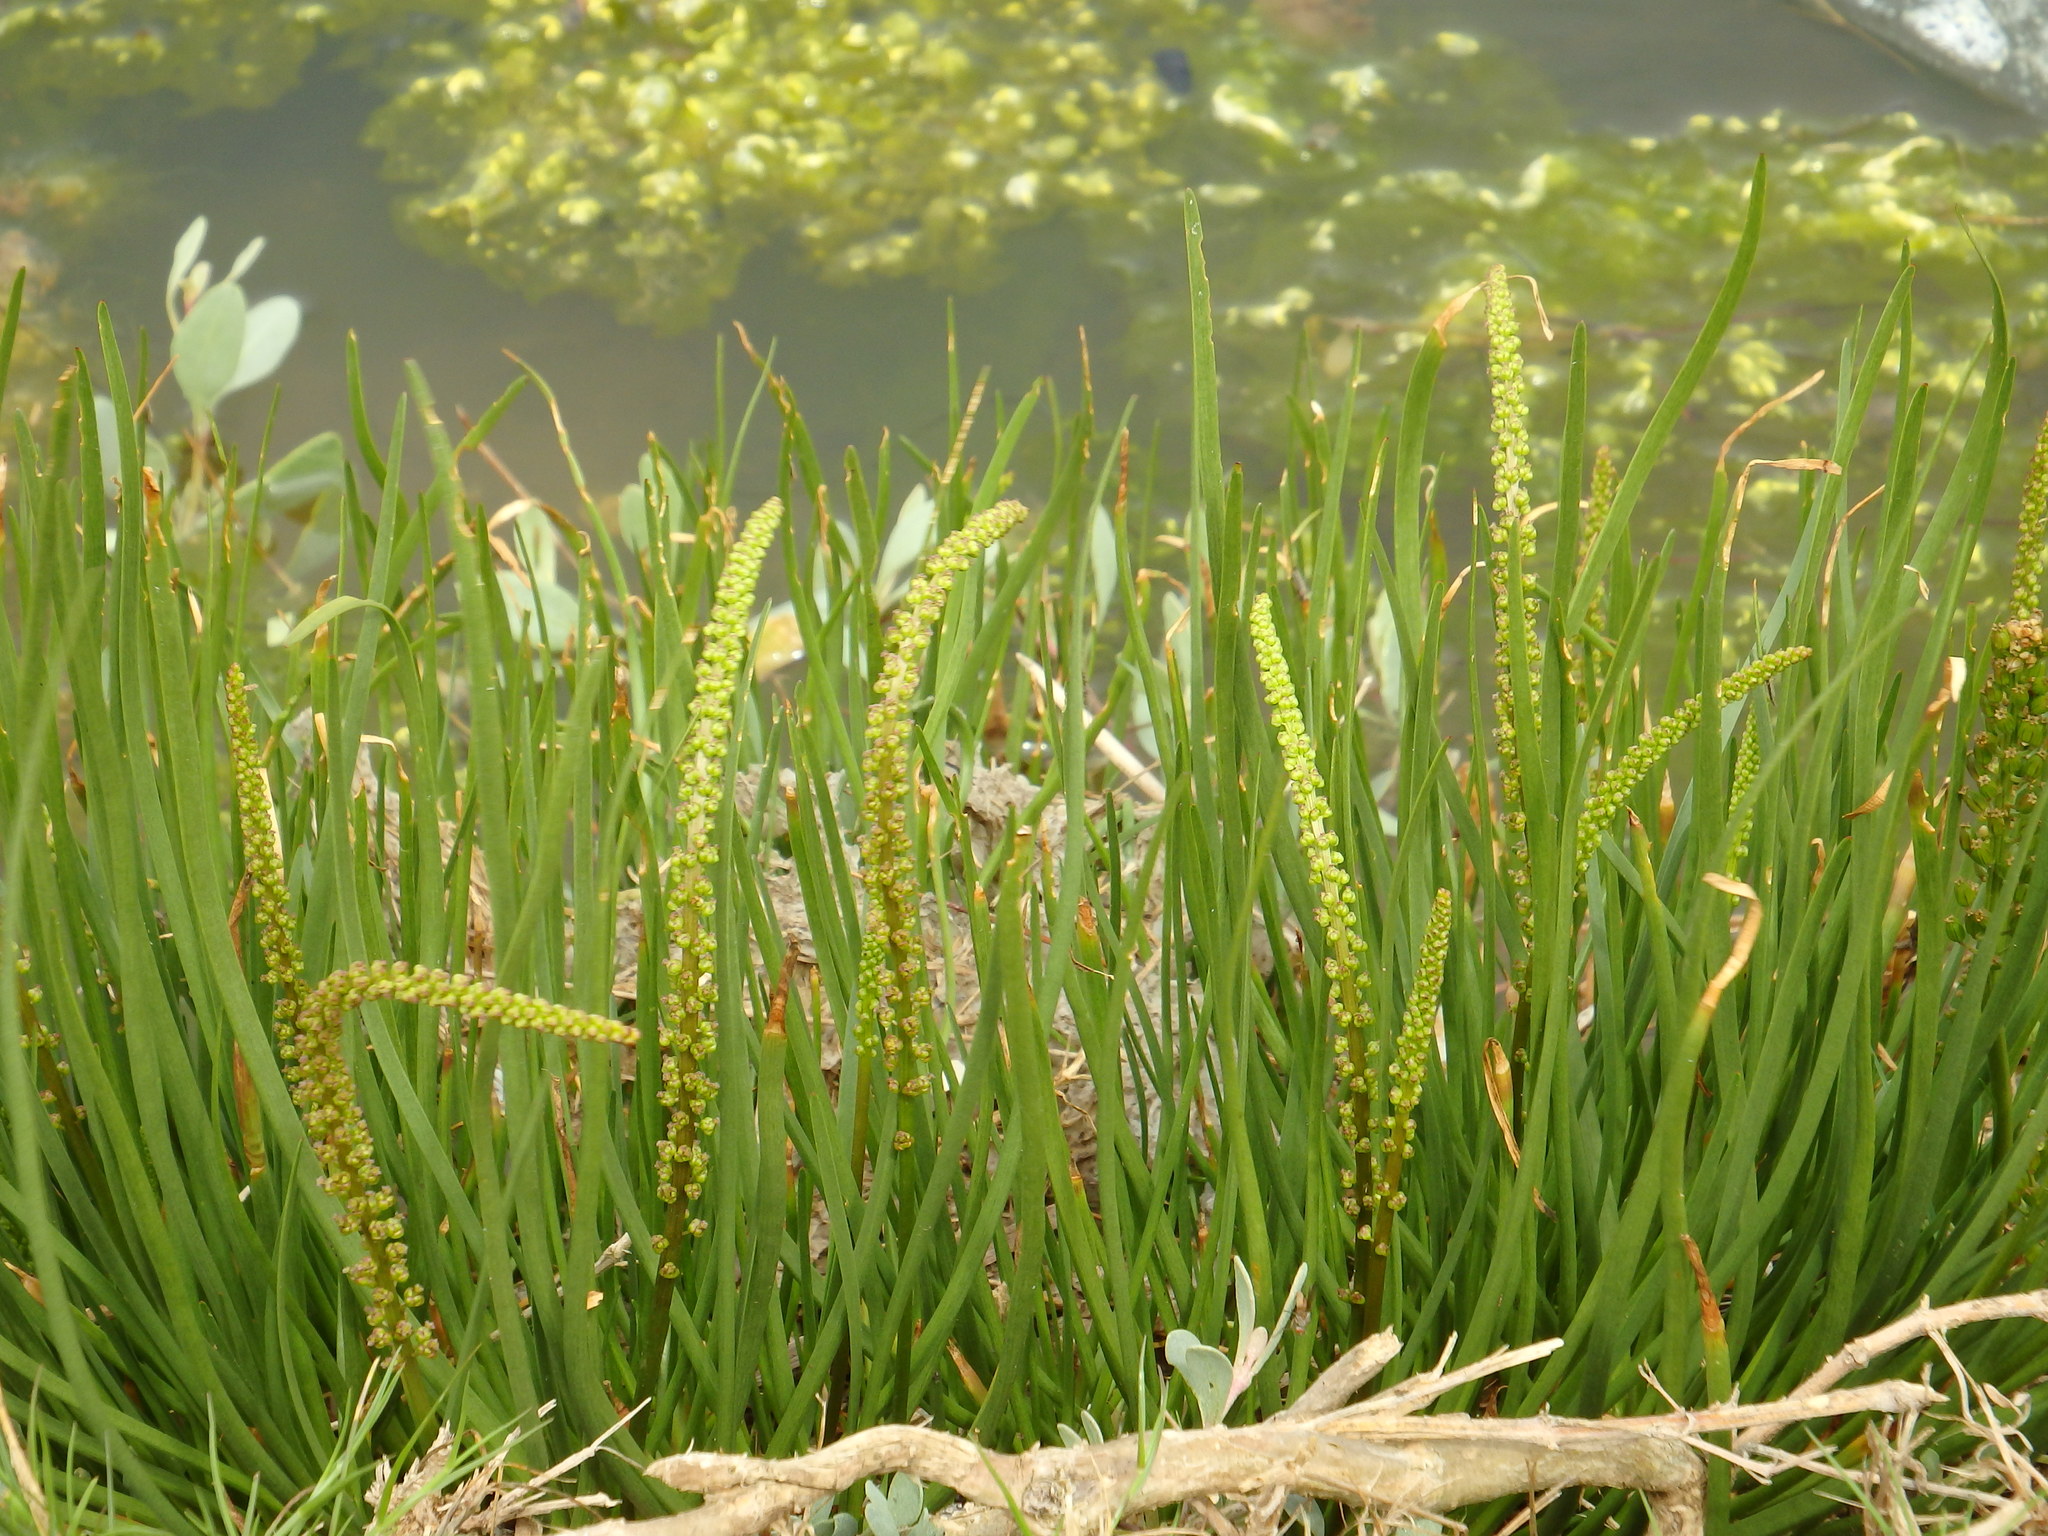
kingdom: Plantae
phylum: Tracheophyta
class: Liliopsida
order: Alismatales
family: Juncaginaceae
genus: Triglochin
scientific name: Triglochin maritima
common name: Sea arrowgrass
